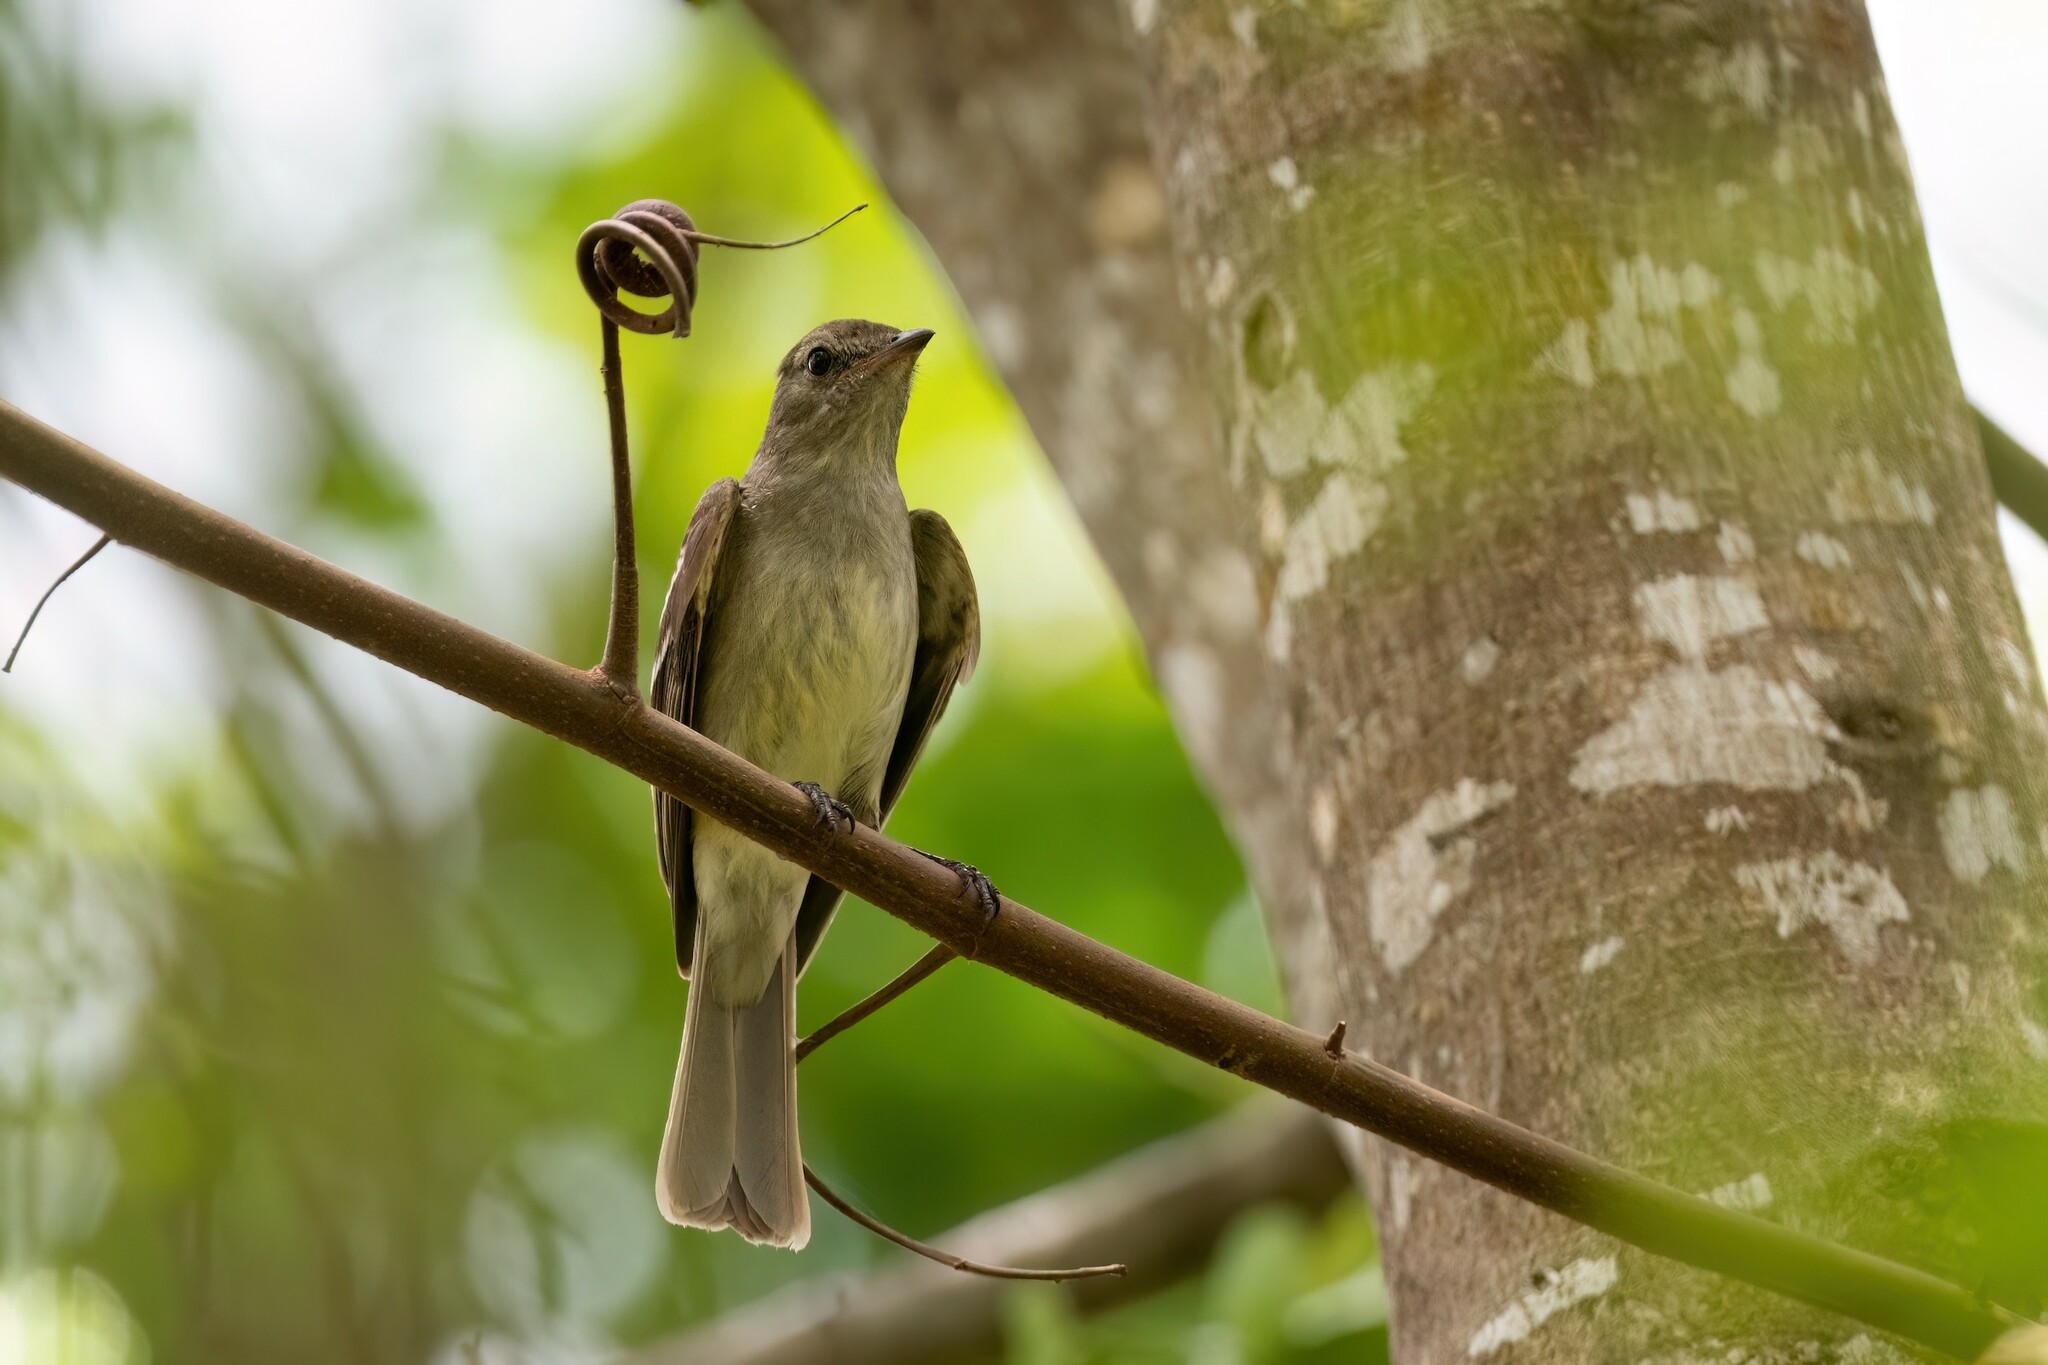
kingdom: Animalia
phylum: Chordata
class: Aves
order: Passeriformes
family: Tyrannidae
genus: Elaenia
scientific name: Elaenia martinica
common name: Caribbean elaenia
